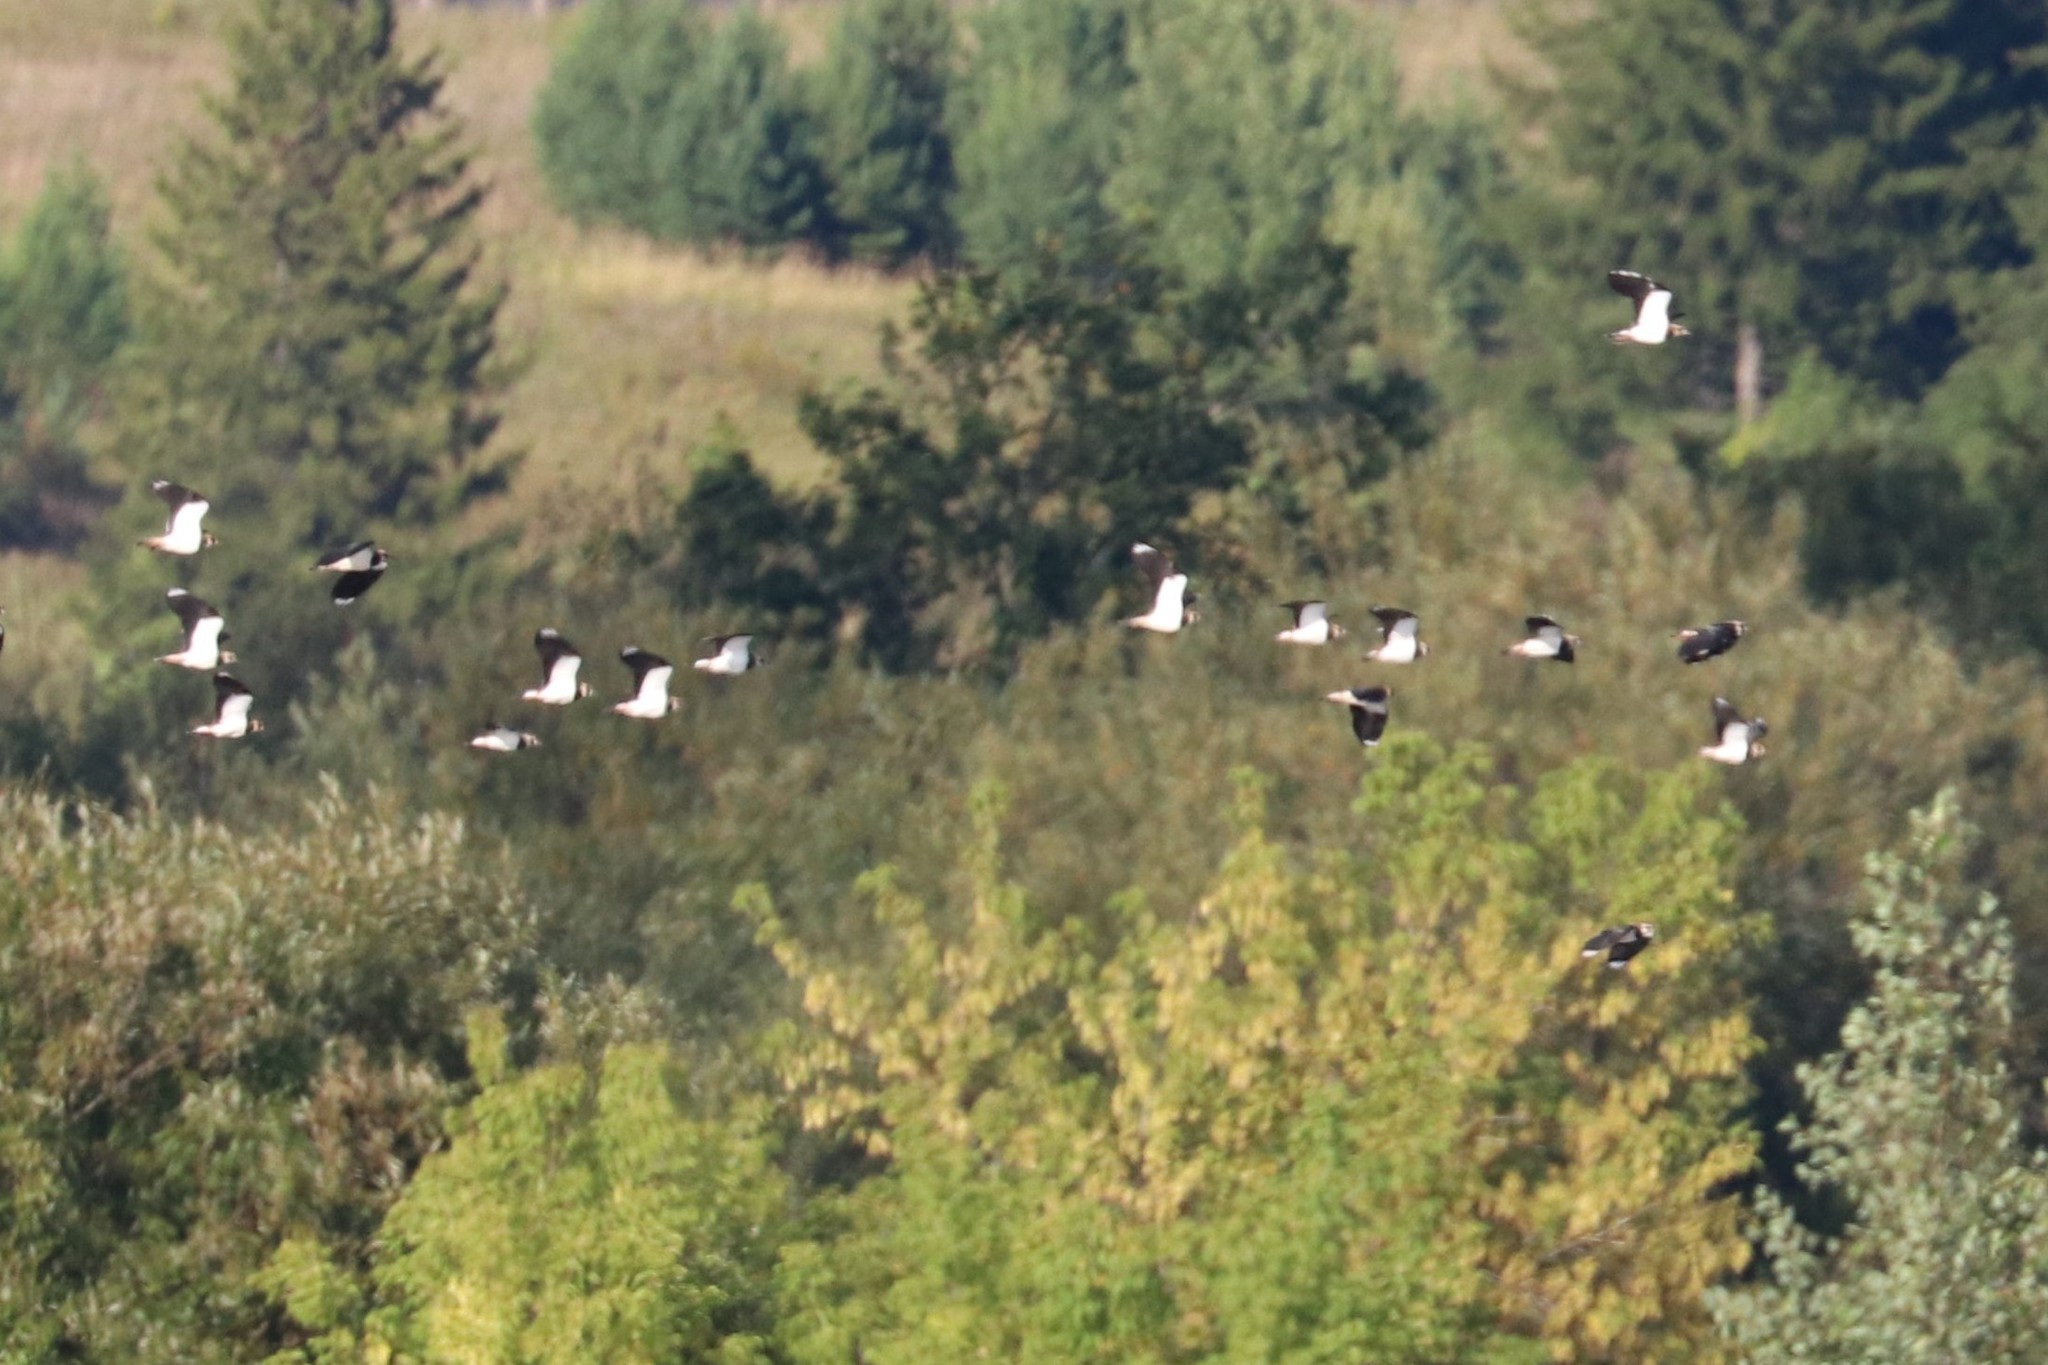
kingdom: Animalia
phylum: Chordata
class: Aves
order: Charadriiformes
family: Charadriidae
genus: Vanellus
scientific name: Vanellus vanellus
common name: Northern lapwing
